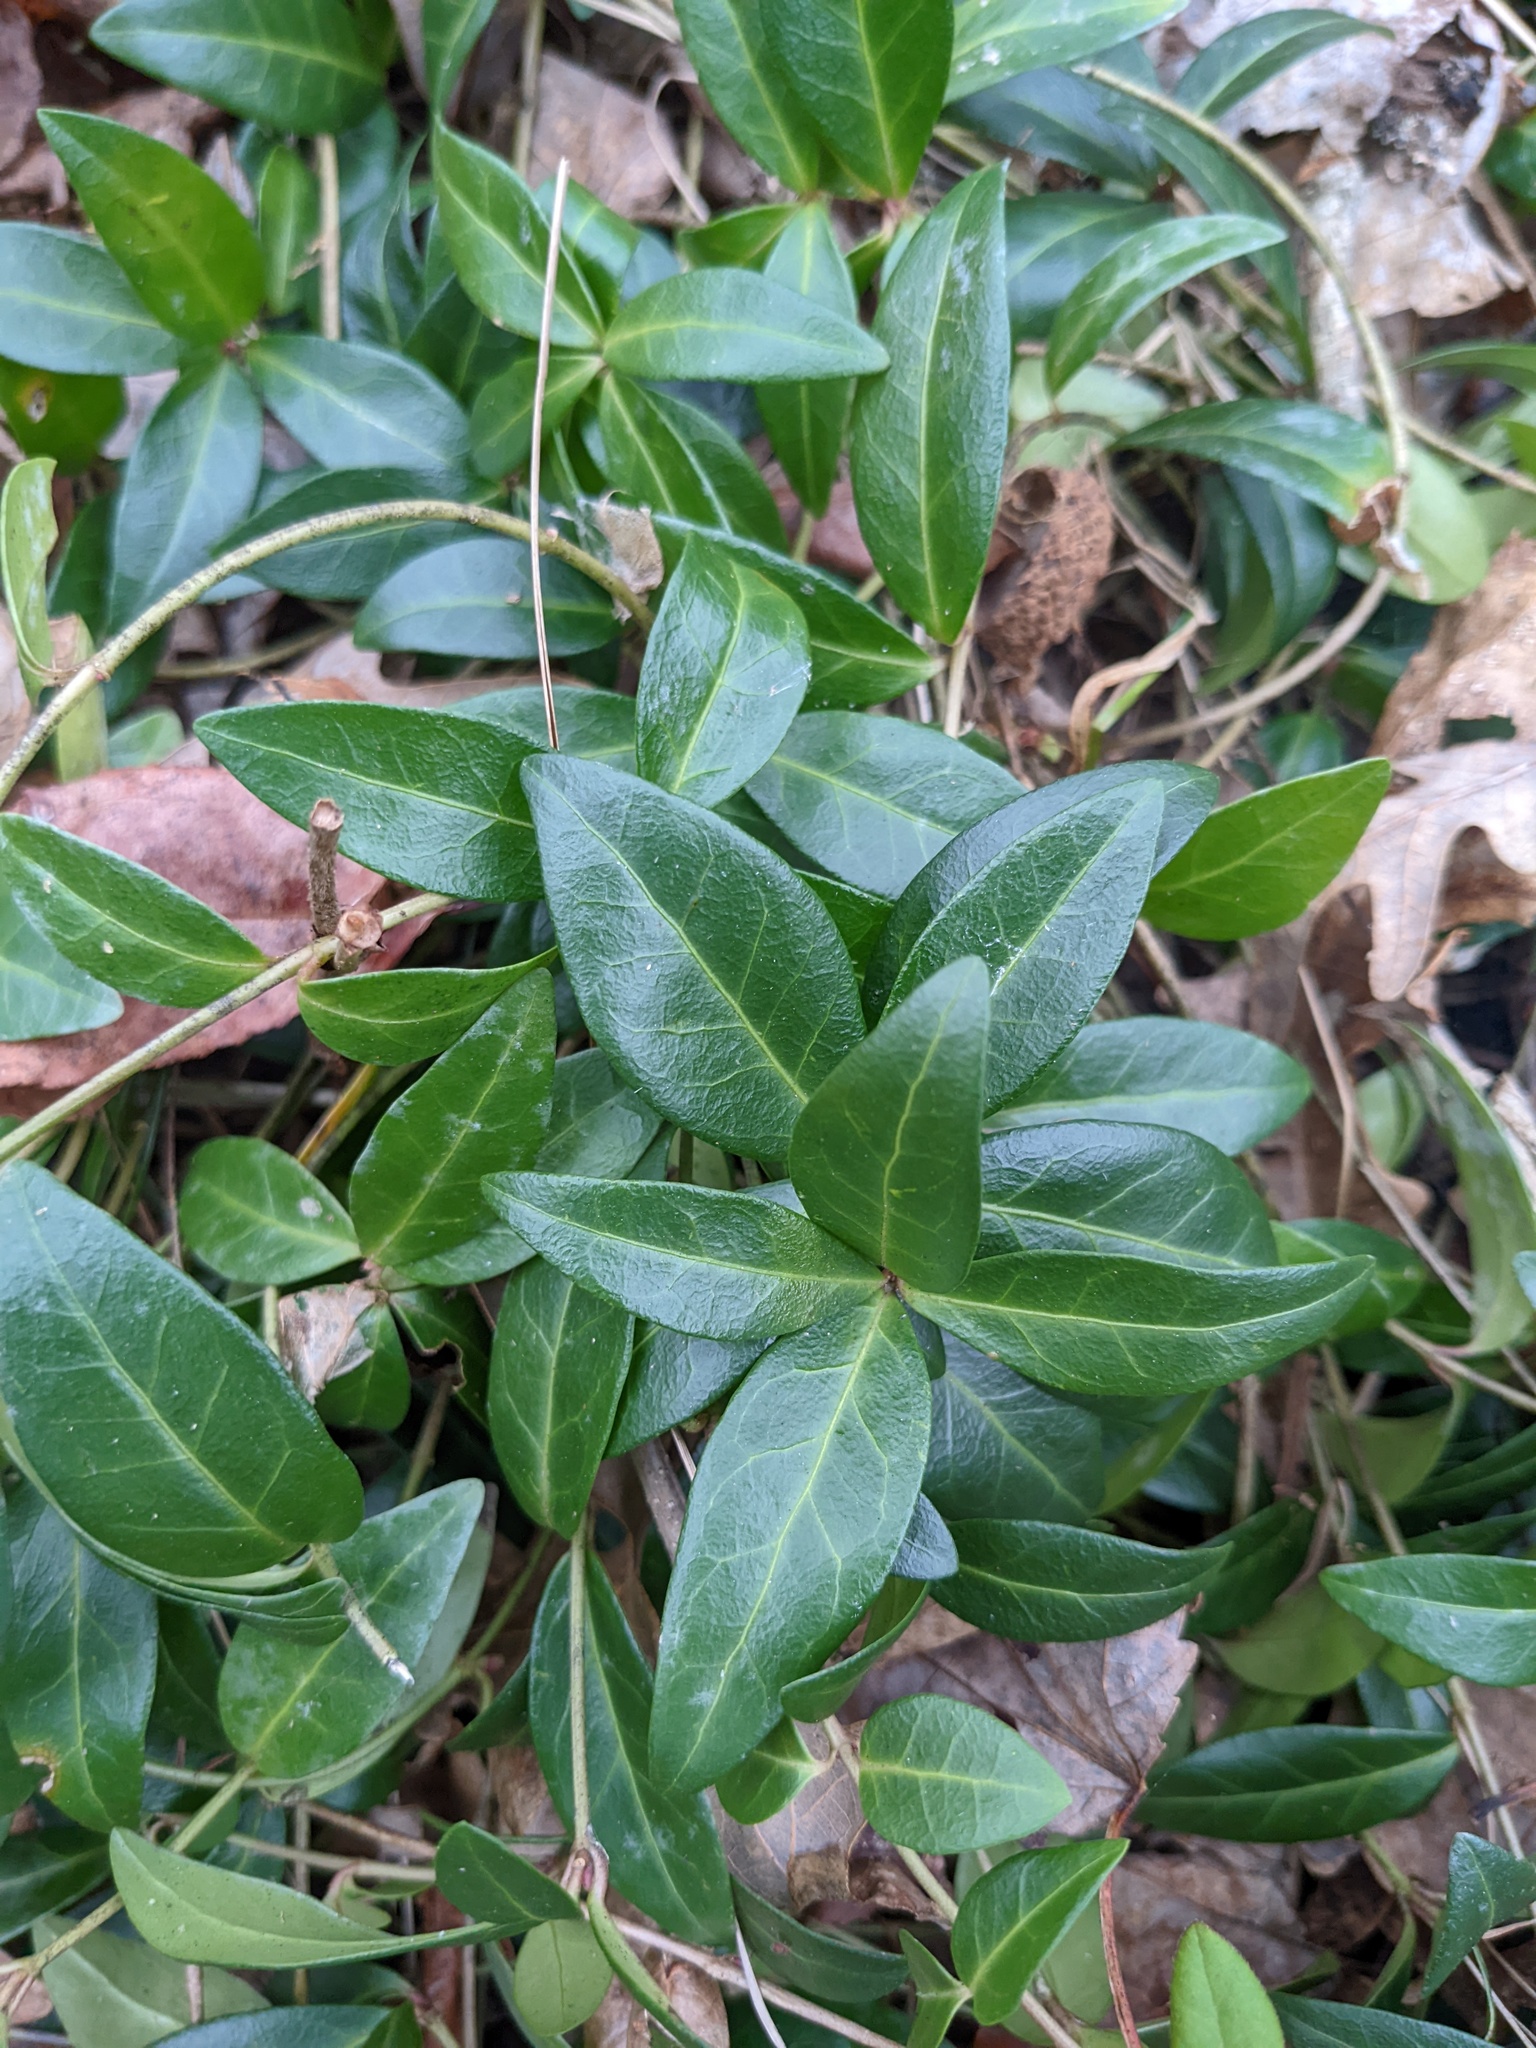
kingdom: Plantae
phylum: Tracheophyta
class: Magnoliopsida
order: Gentianales
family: Apocynaceae
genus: Vinca
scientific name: Vinca minor
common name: Lesser periwinkle
